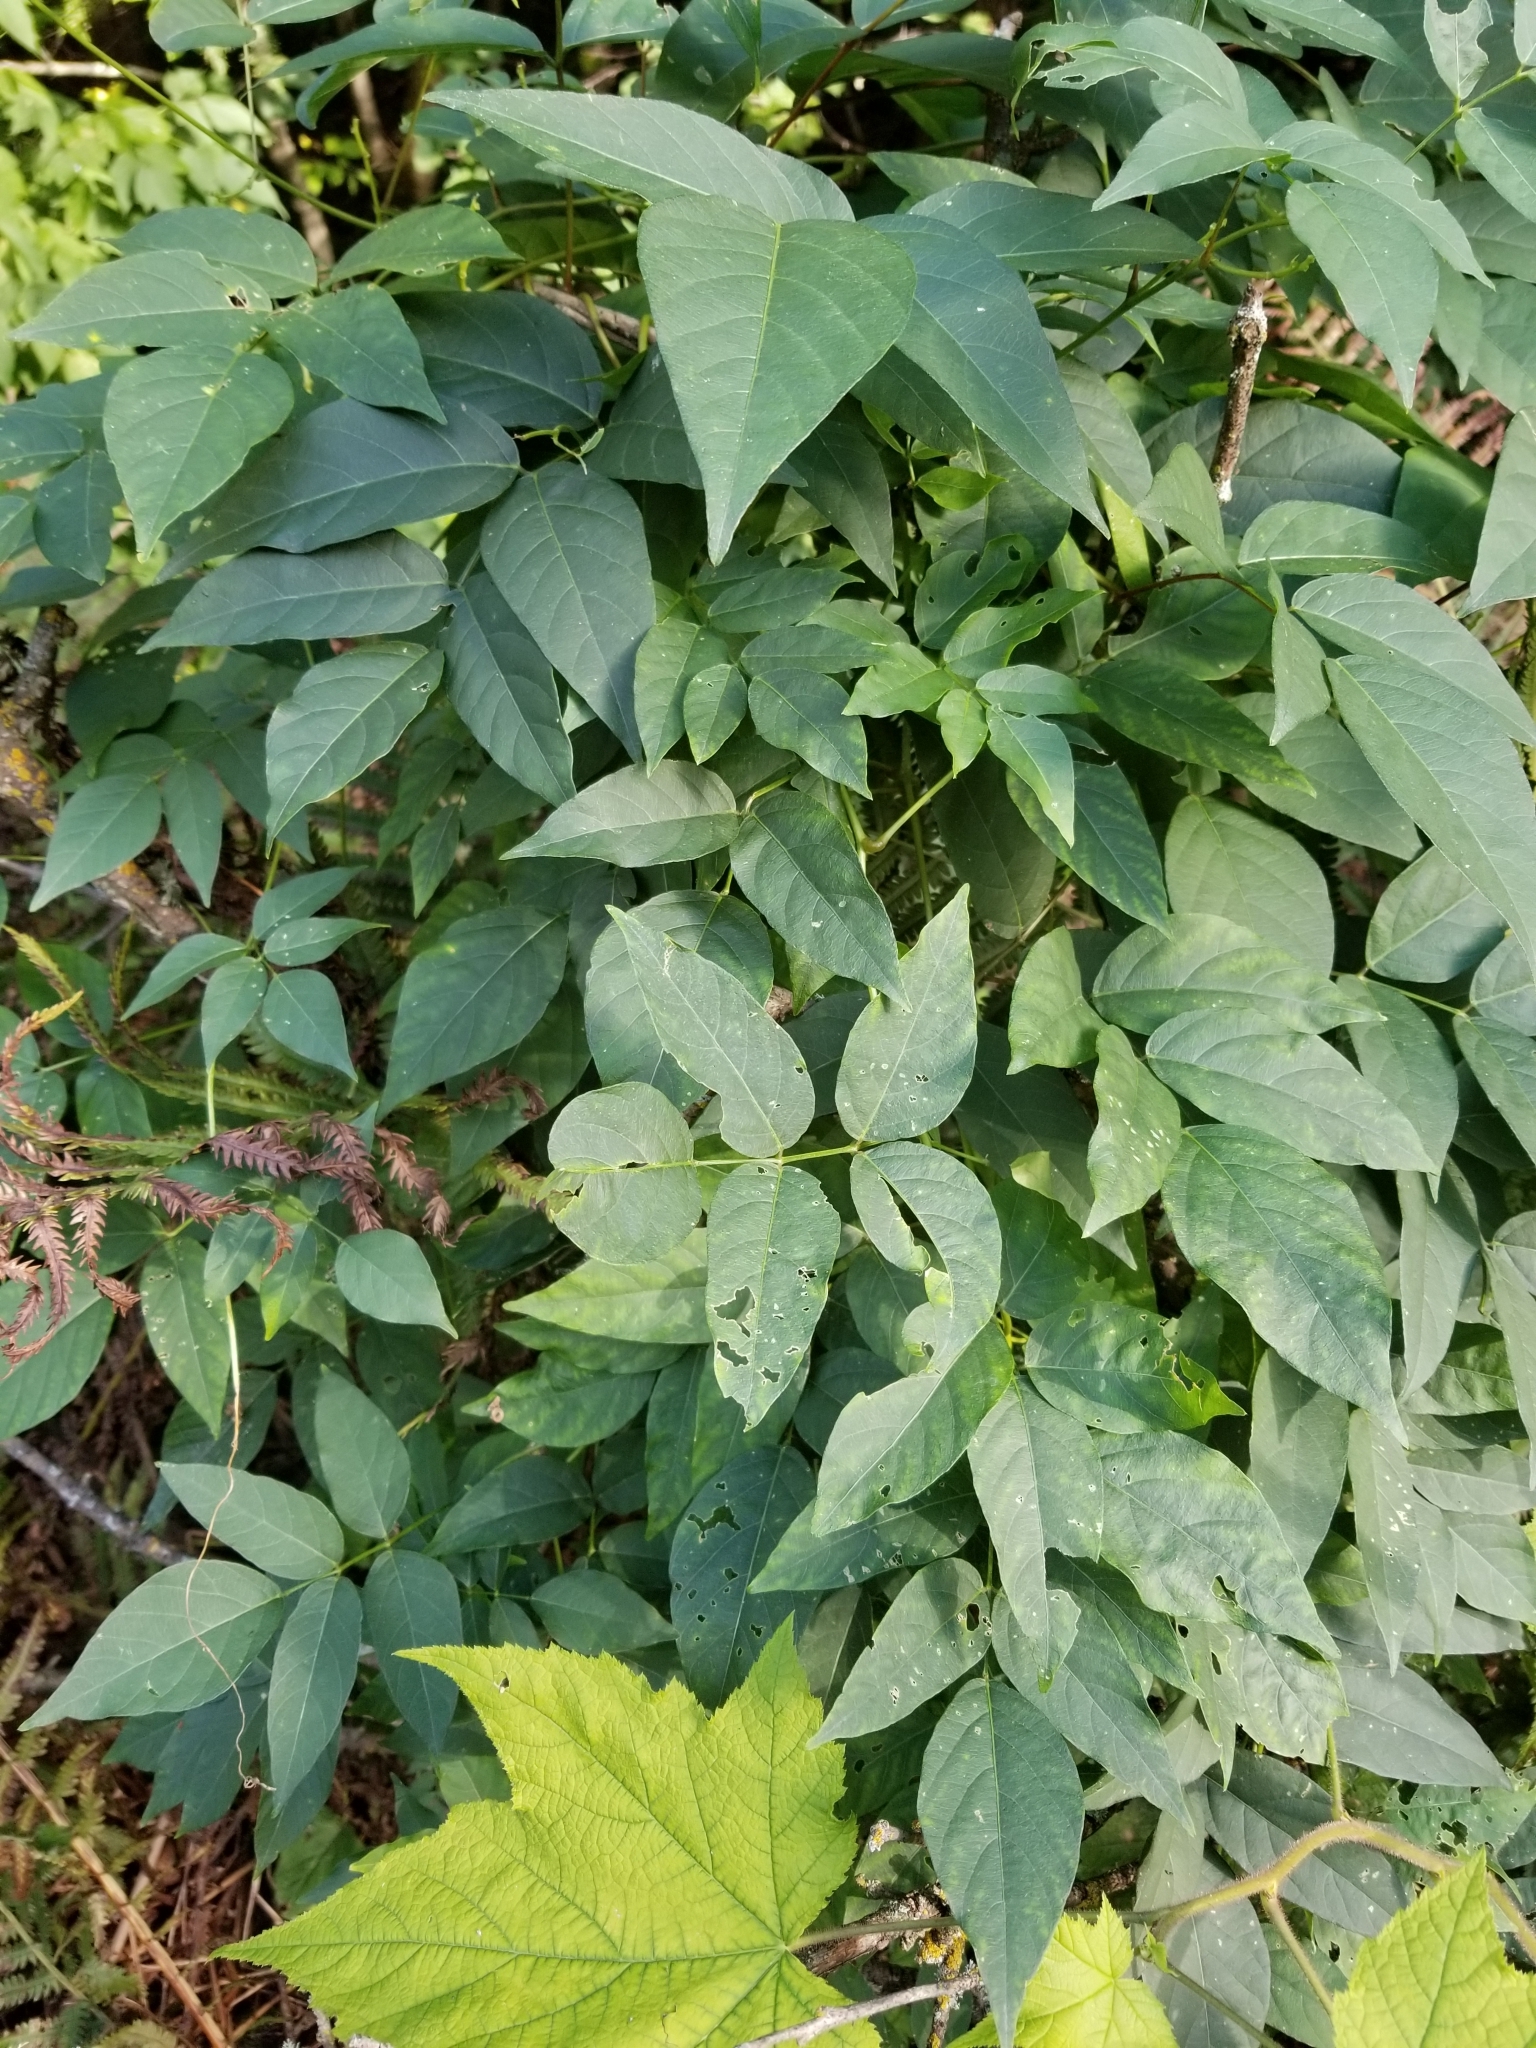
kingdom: Plantae
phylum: Tracheophyta
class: Magnoliopsida
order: Fabales
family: Fabaceae
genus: Apios
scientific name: Apios americana
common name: American potato-bean
